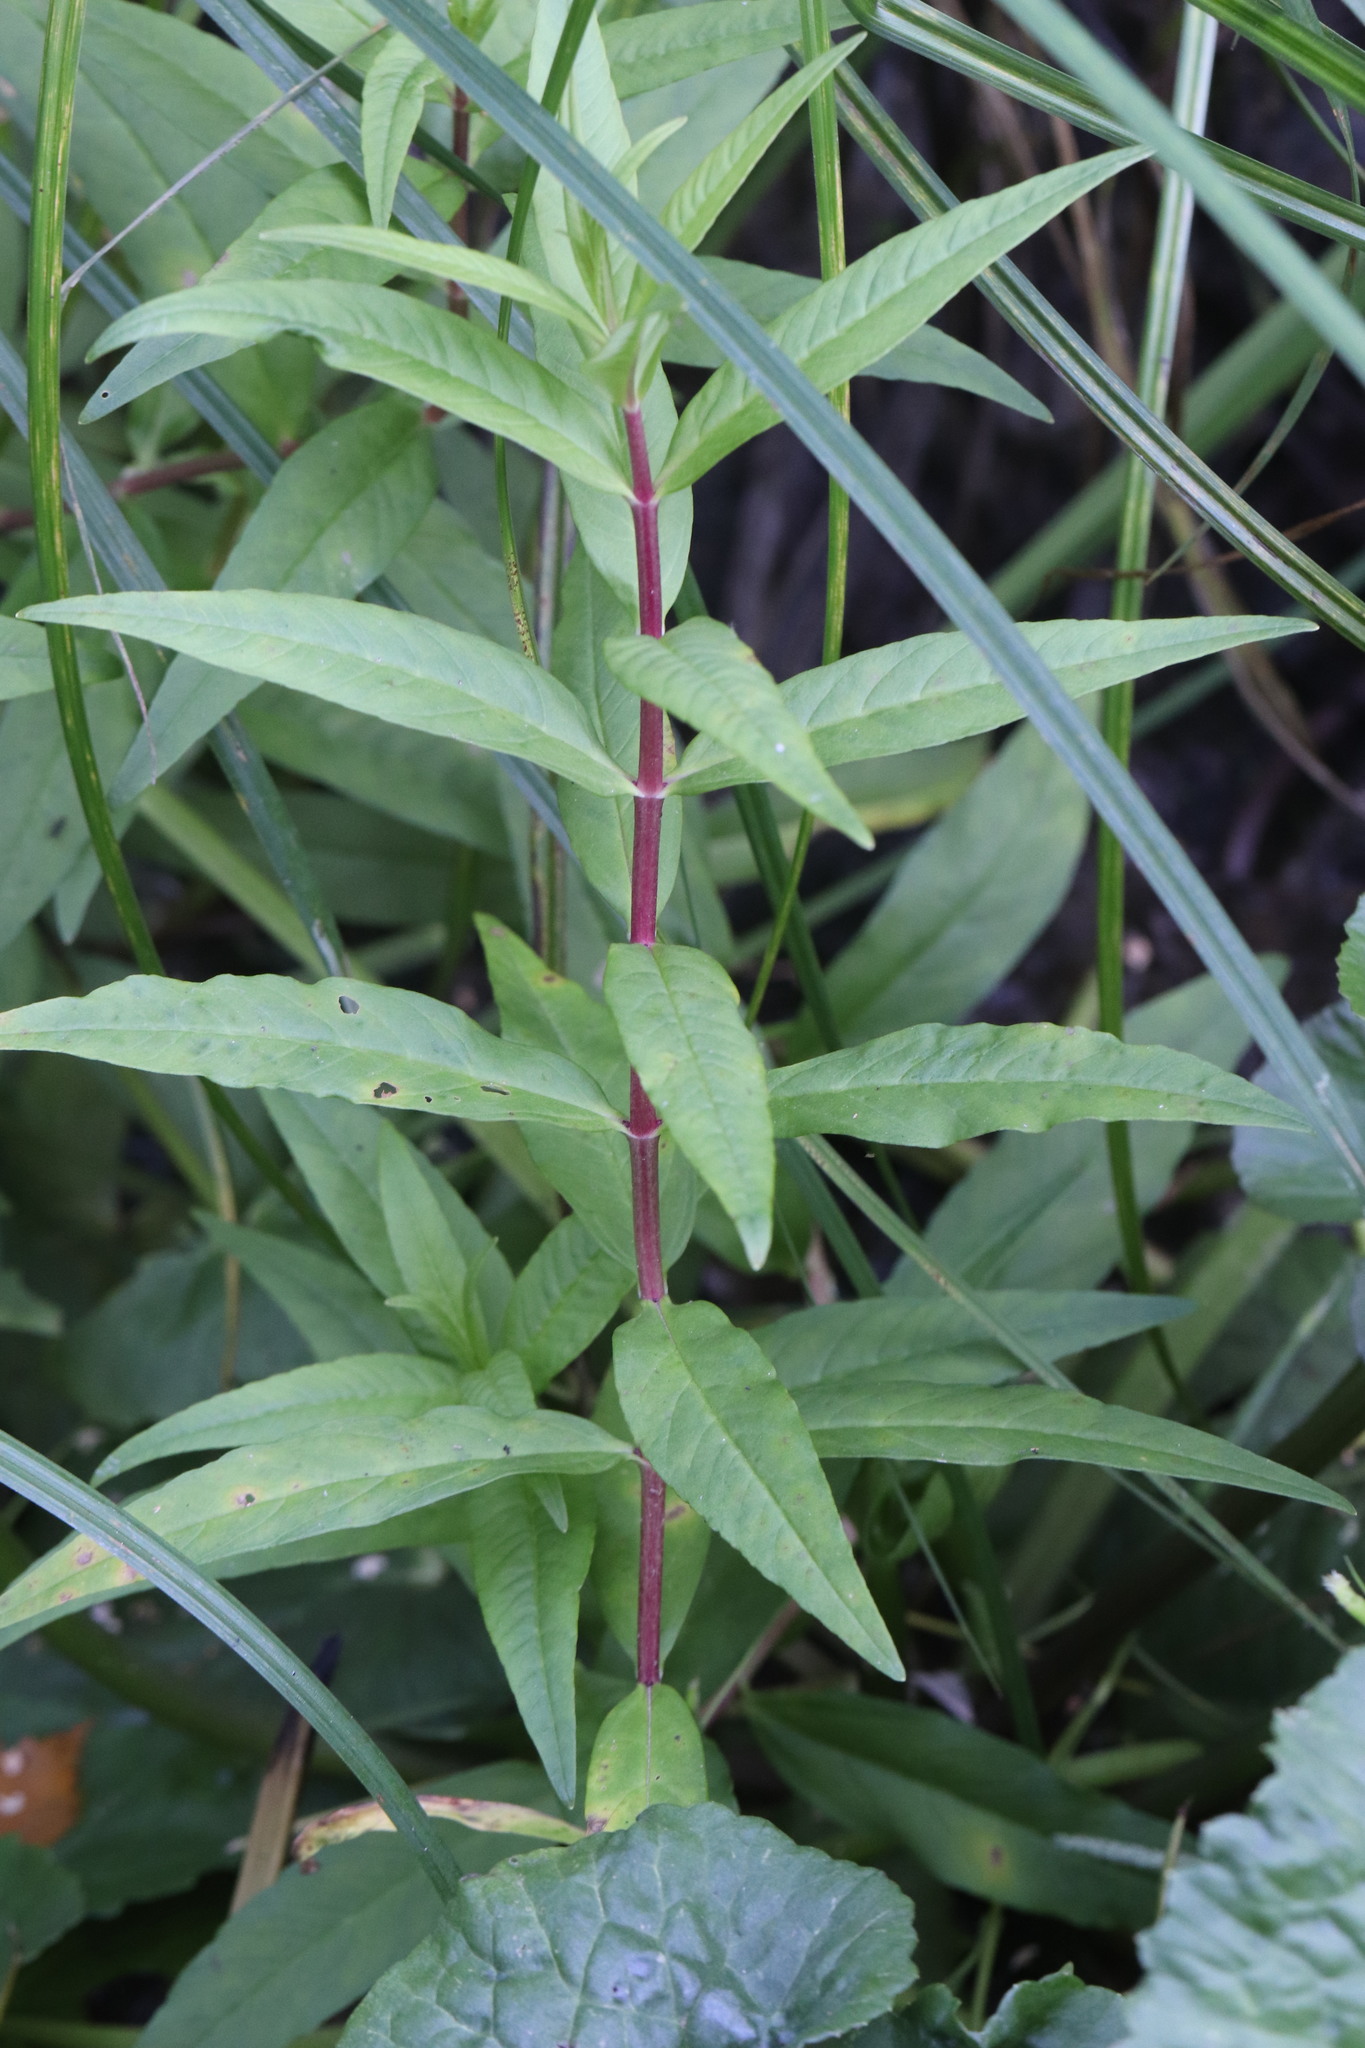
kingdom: Plantae
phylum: Tracheophyta
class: Magnoliopsida
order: Ericales
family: Primulaceae
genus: Lysimachia
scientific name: Lysimachia thyrsiflora
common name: Tufted loosestrife
